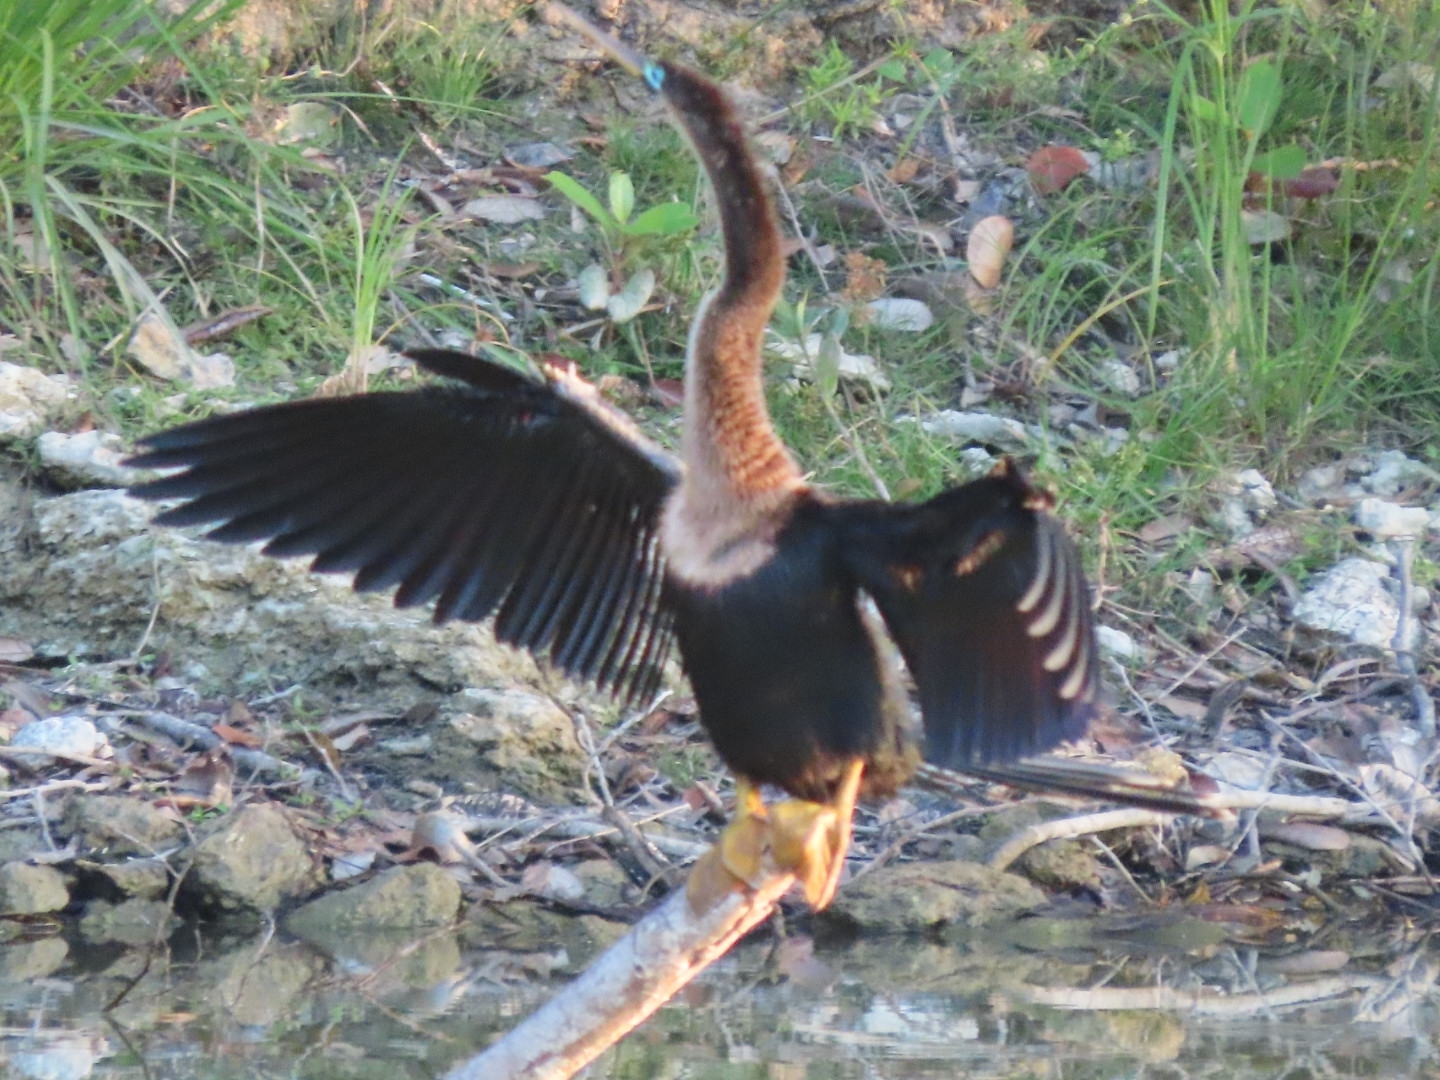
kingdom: Animalia
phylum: Chordata
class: Aves
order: Suliformes
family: Anhingidae
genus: Anhinga
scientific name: Anhinga anhinga
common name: Anhinga
